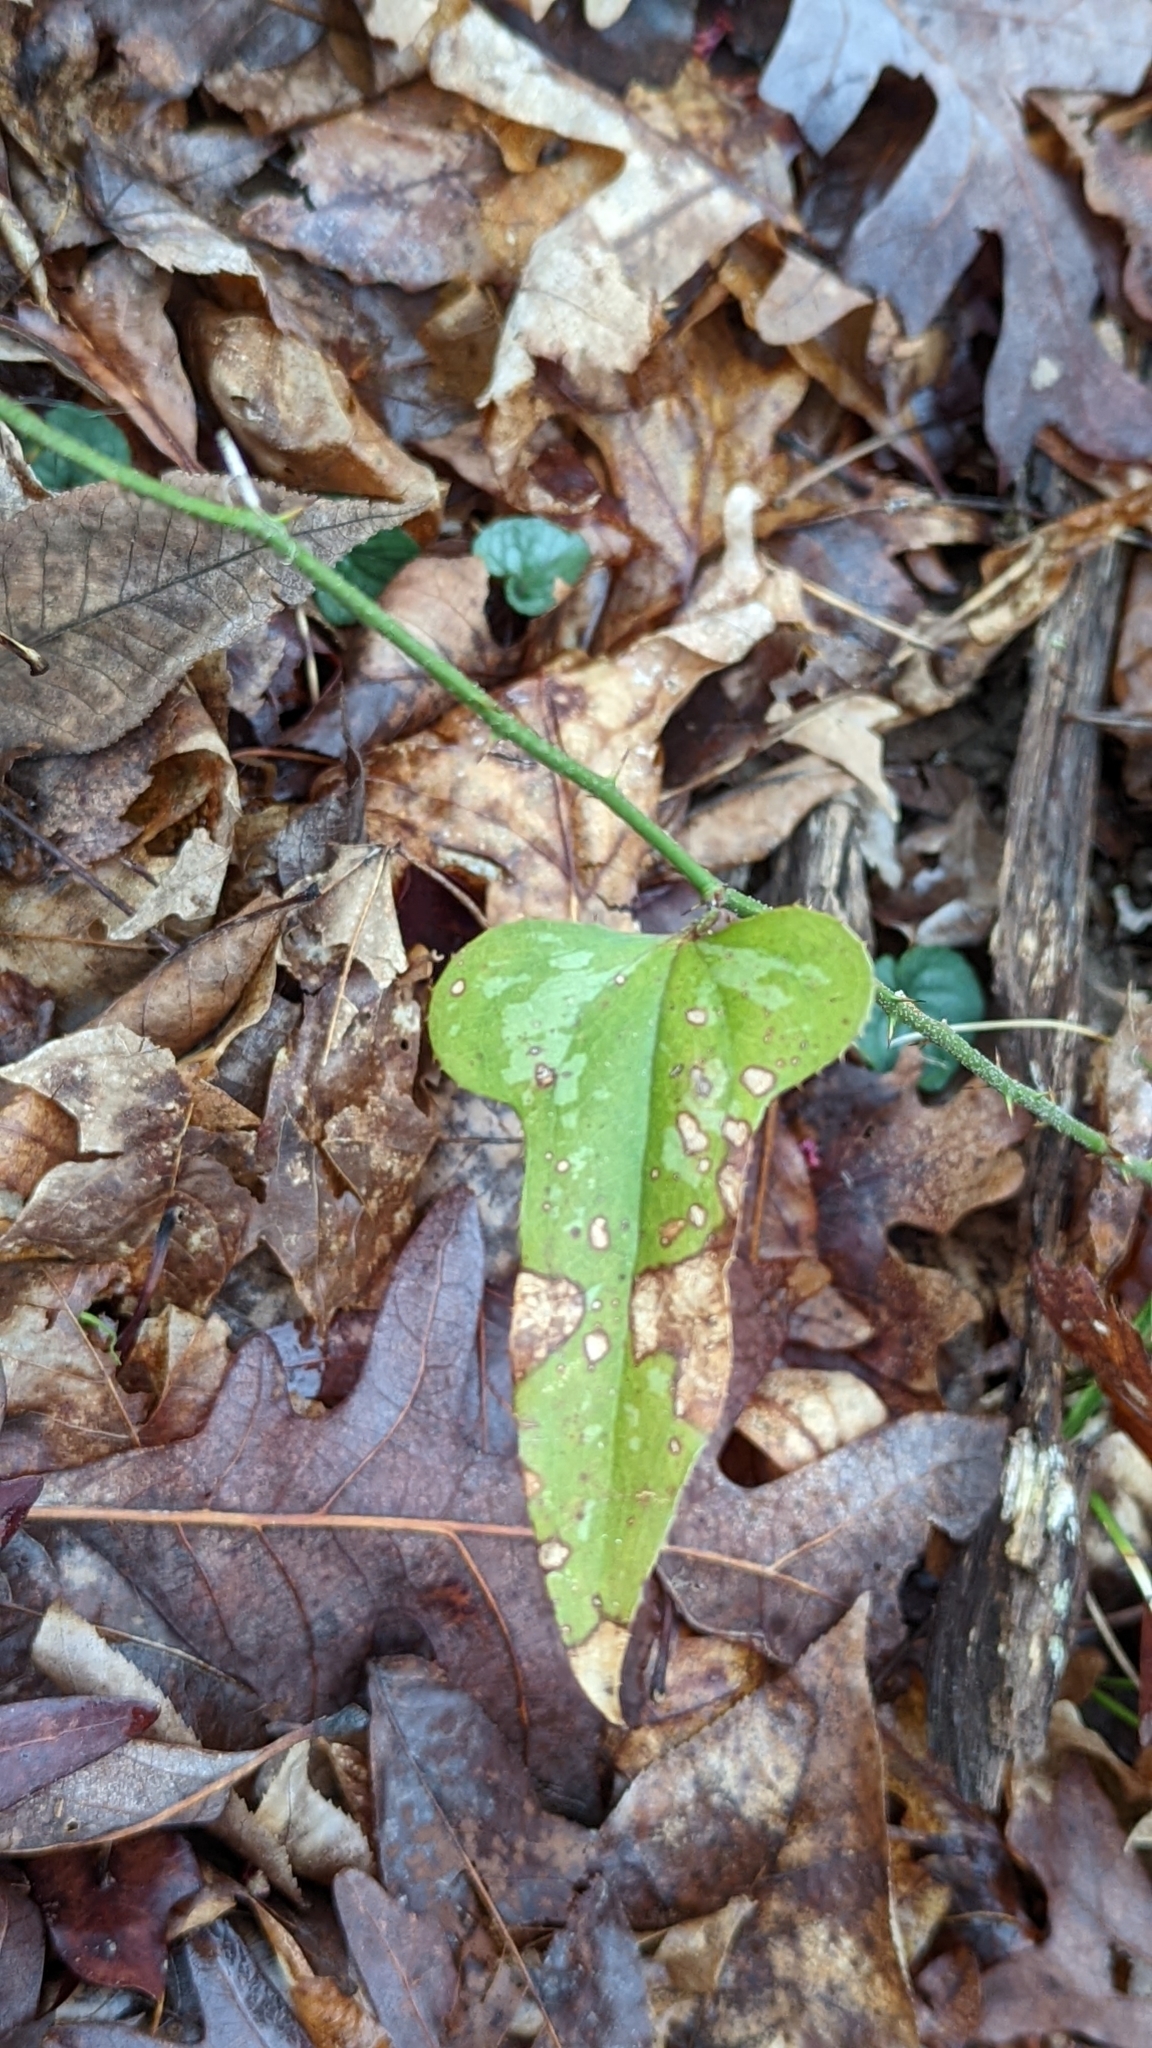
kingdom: Plantae
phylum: Tracheophyta
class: Liliopsida
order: Liliales
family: Smilacaceae
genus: Smilax
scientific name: Smilax bona-nox
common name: Catbrier
